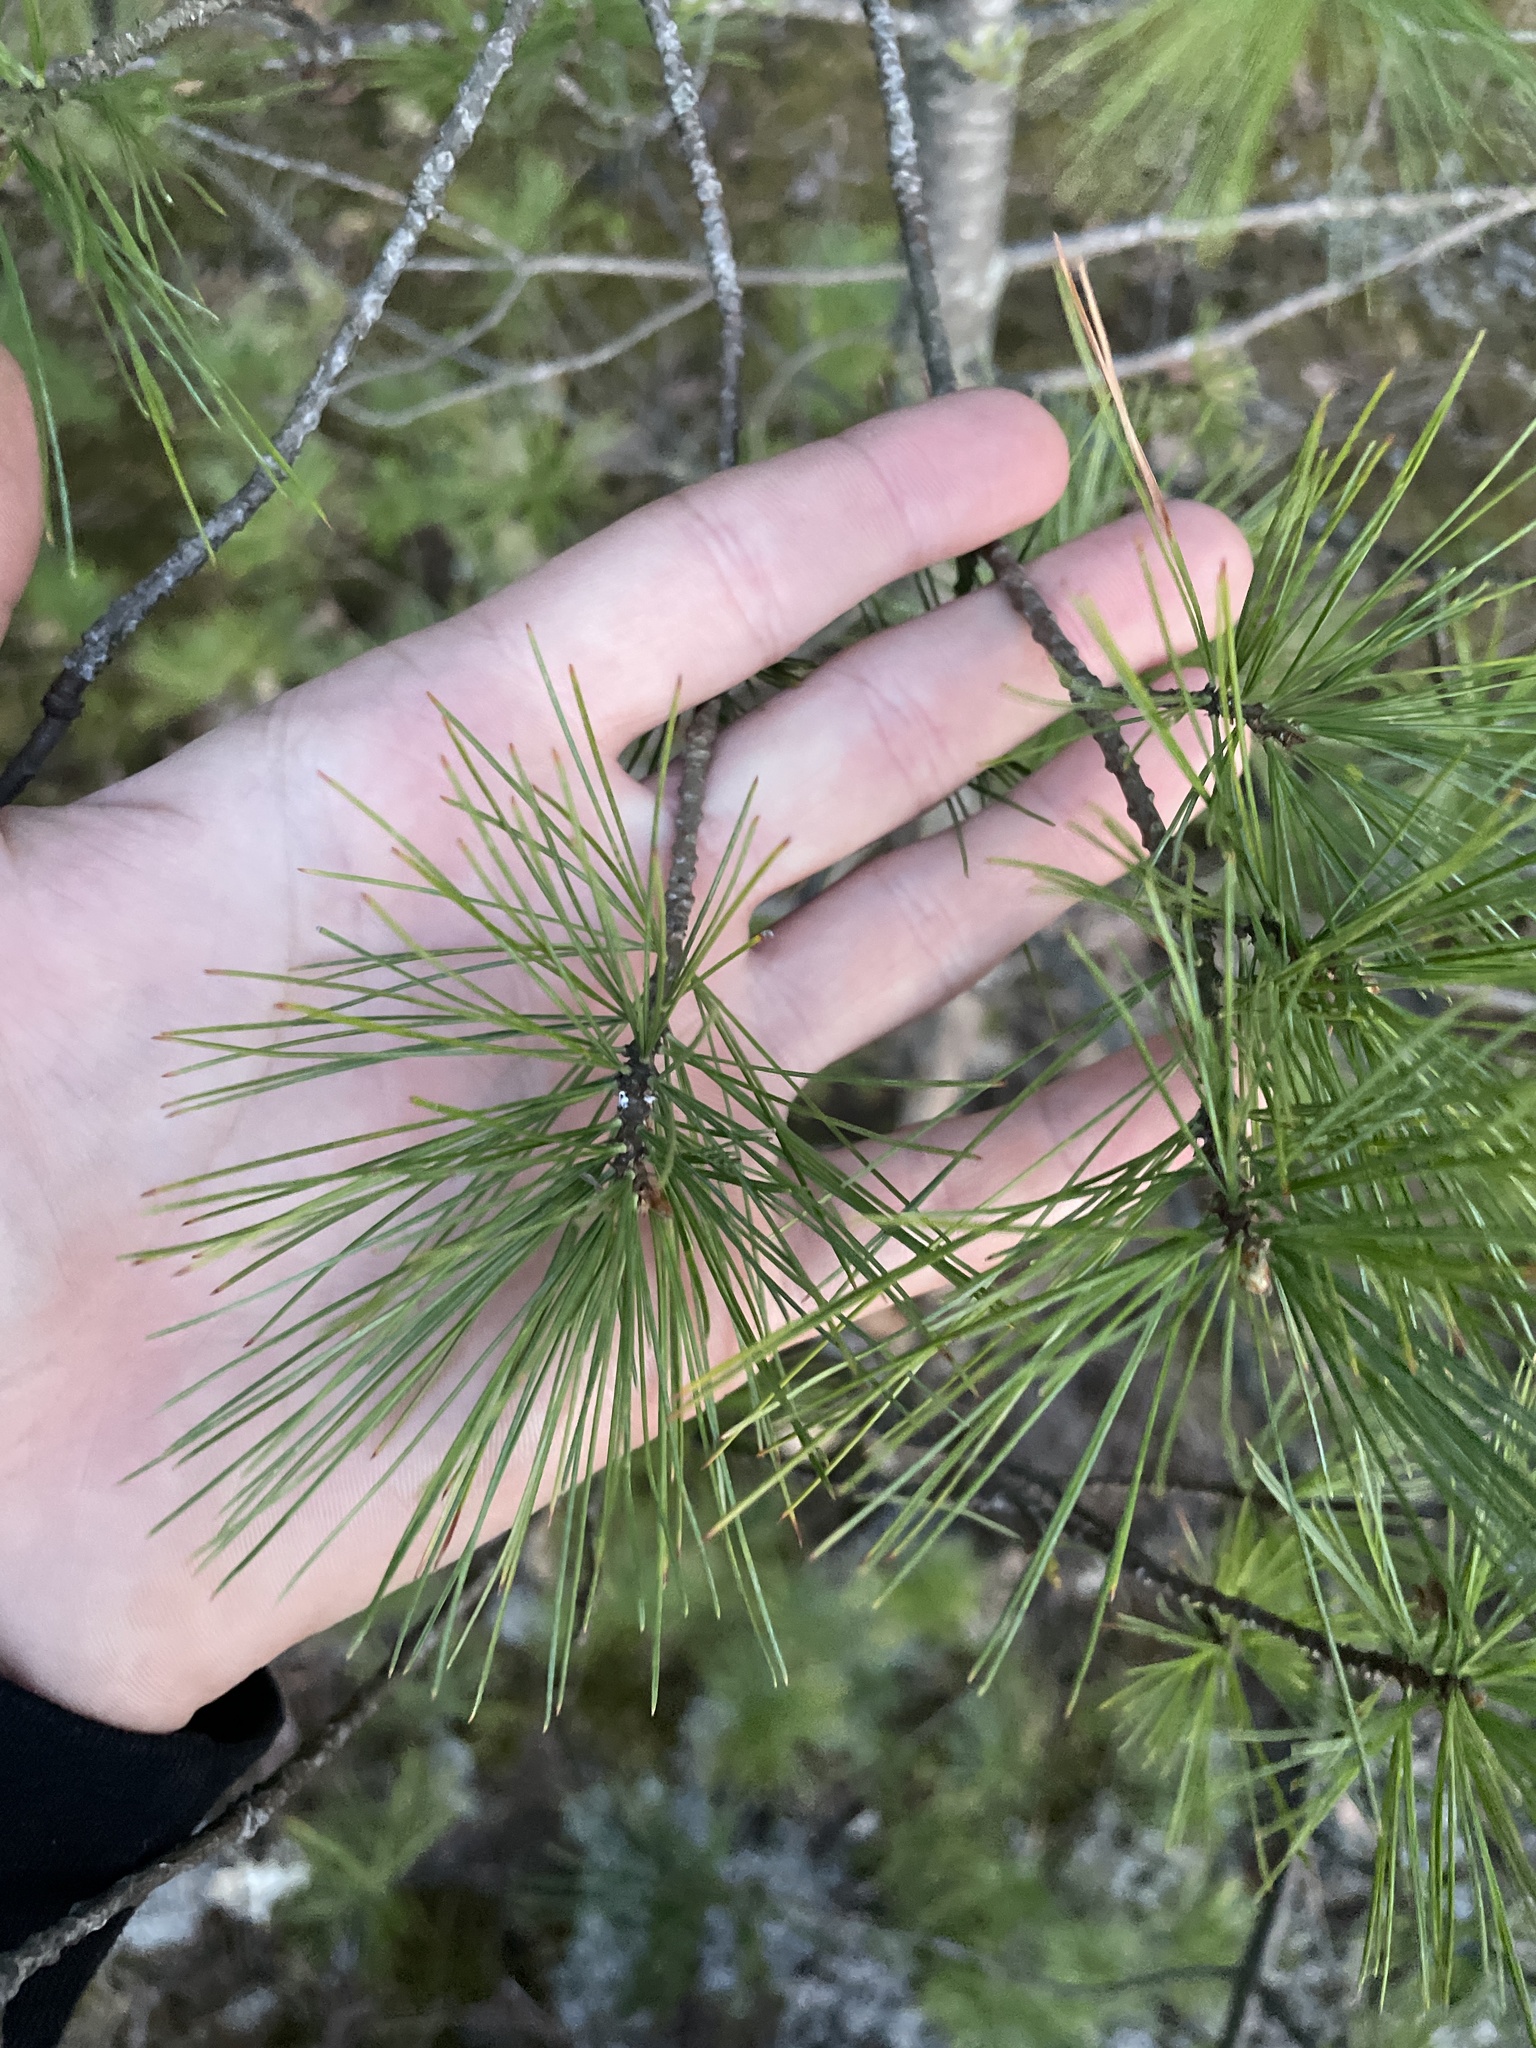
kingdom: Plantae
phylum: Tracheophyta
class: Pinopsida
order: Pinales
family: Pinaceae
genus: Pinus
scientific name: Pinus strobus
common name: Weymouth pine
